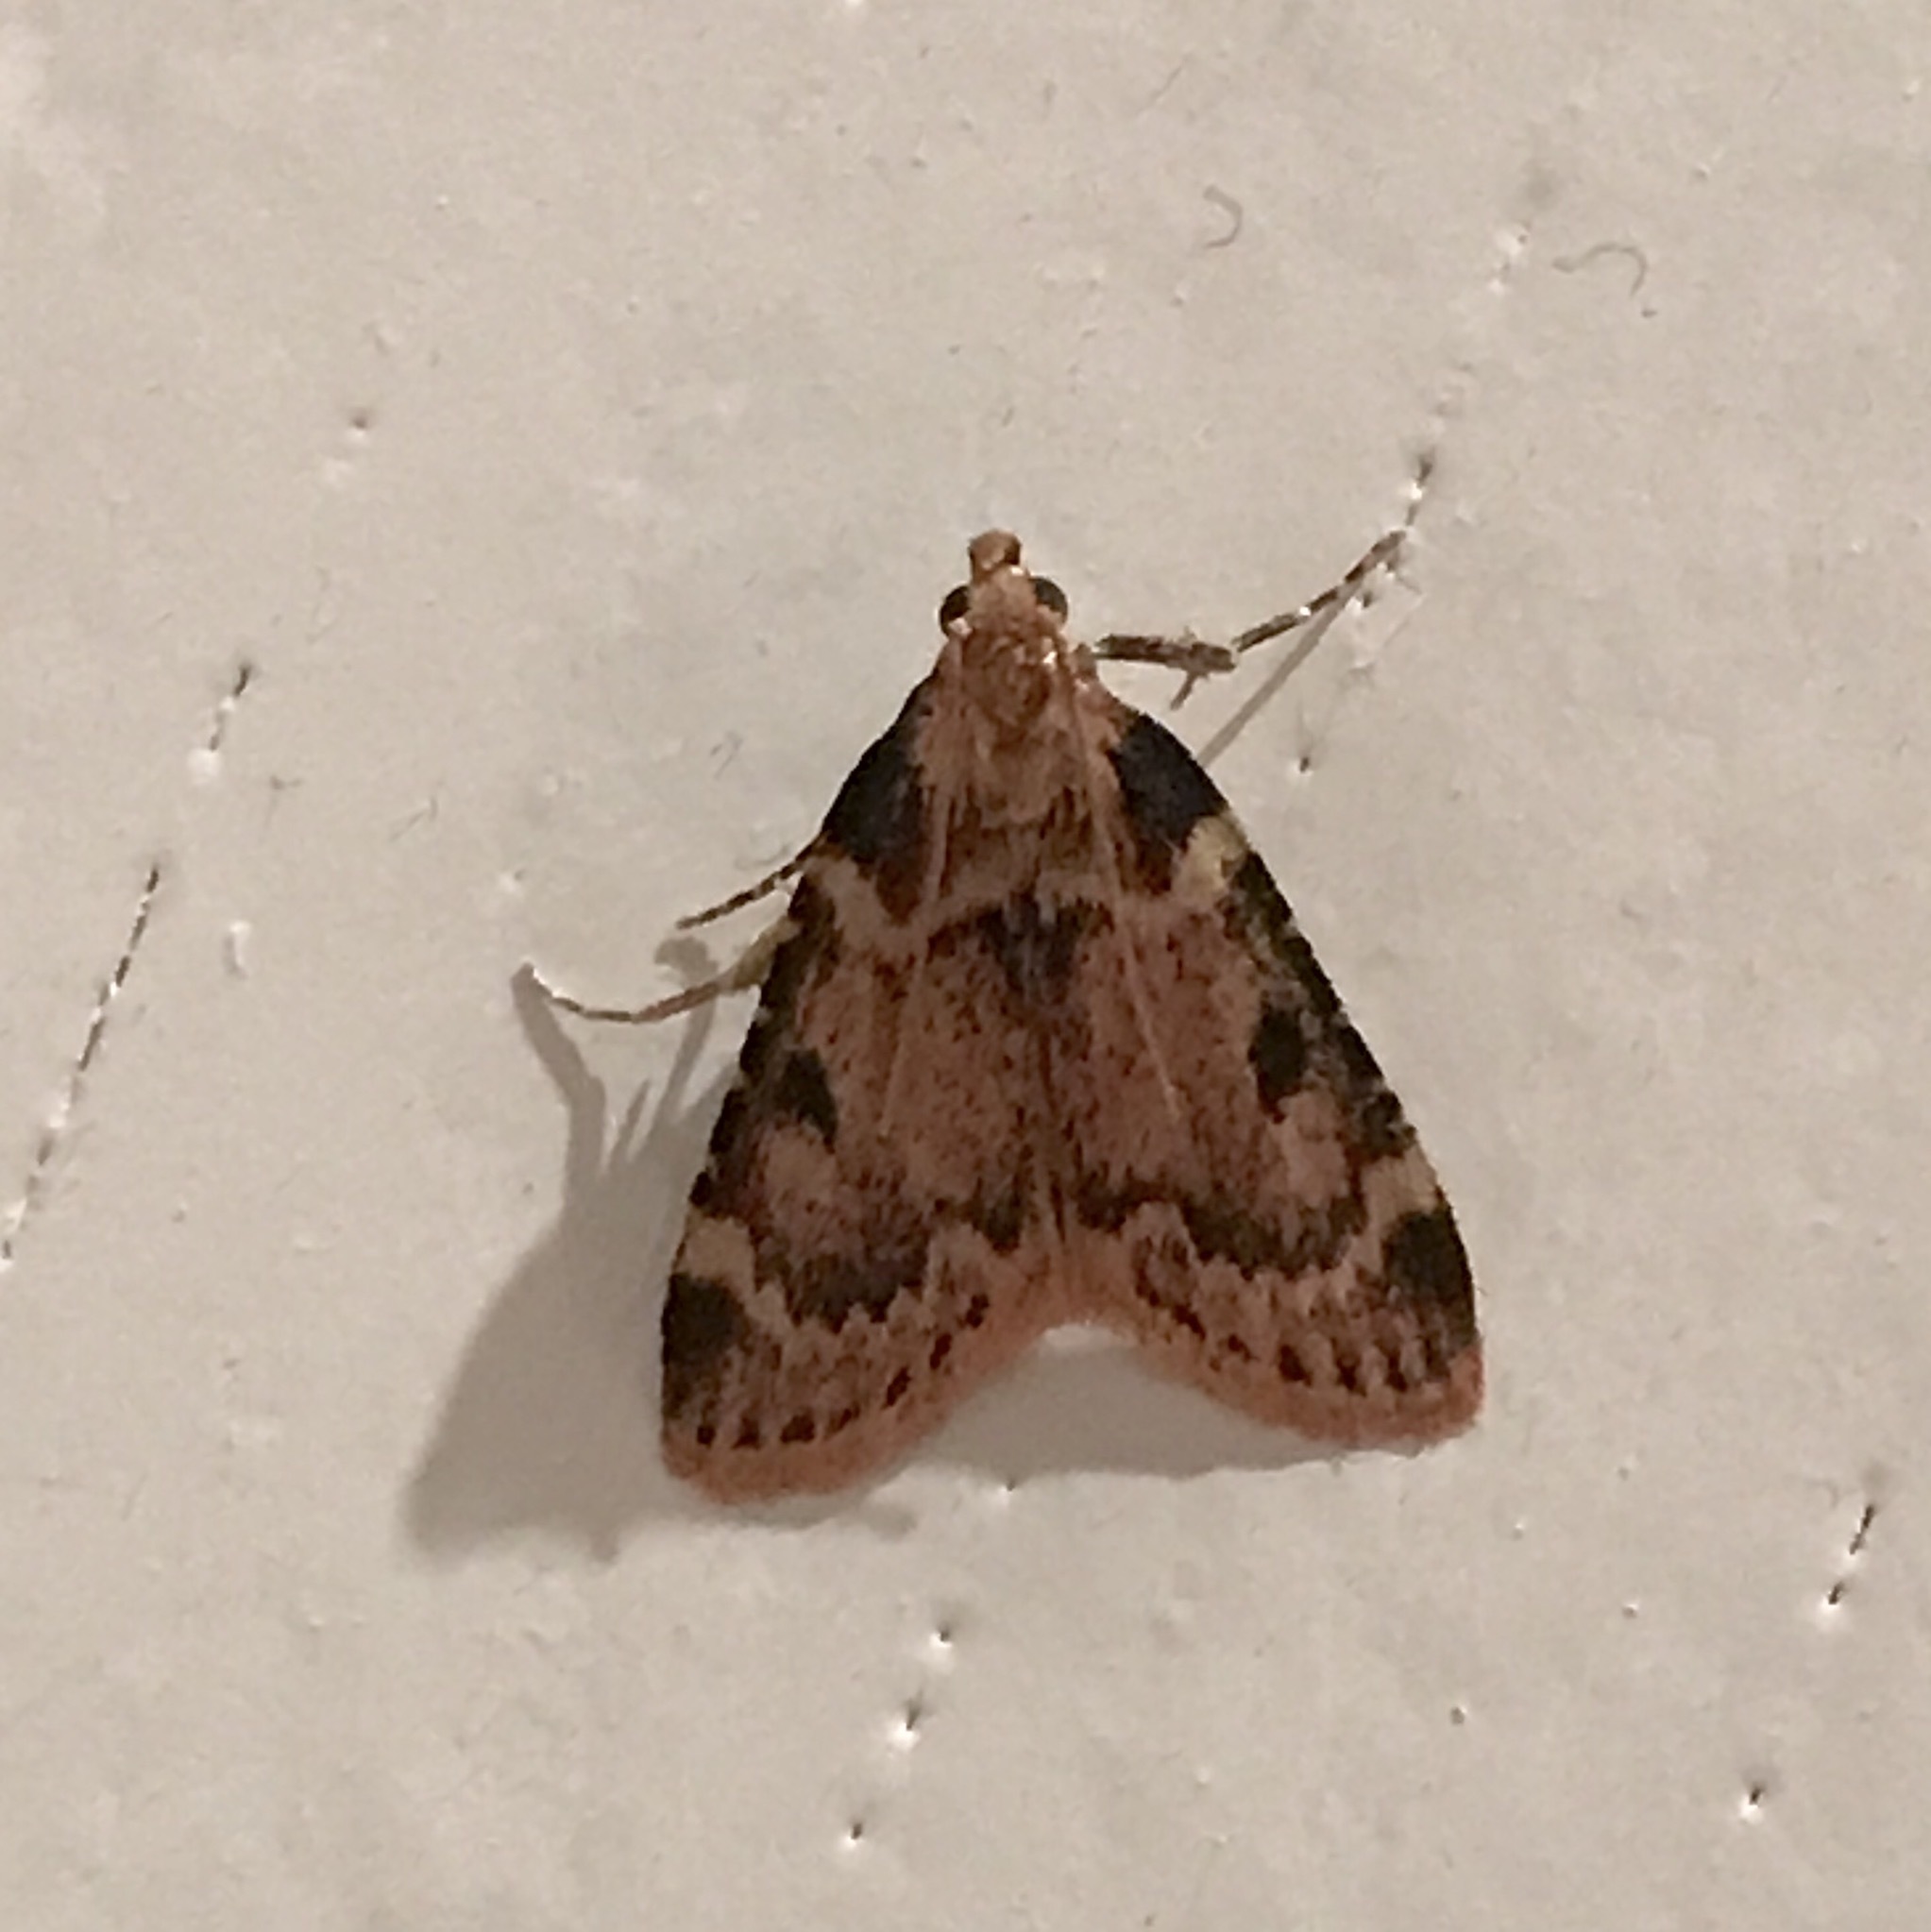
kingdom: Animalia
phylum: Arthropoda
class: Insecta
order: Lepidoptera
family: Pyralidae
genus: Aglossa
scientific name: Aglossa costiferalis
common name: Calico pyralid moth
